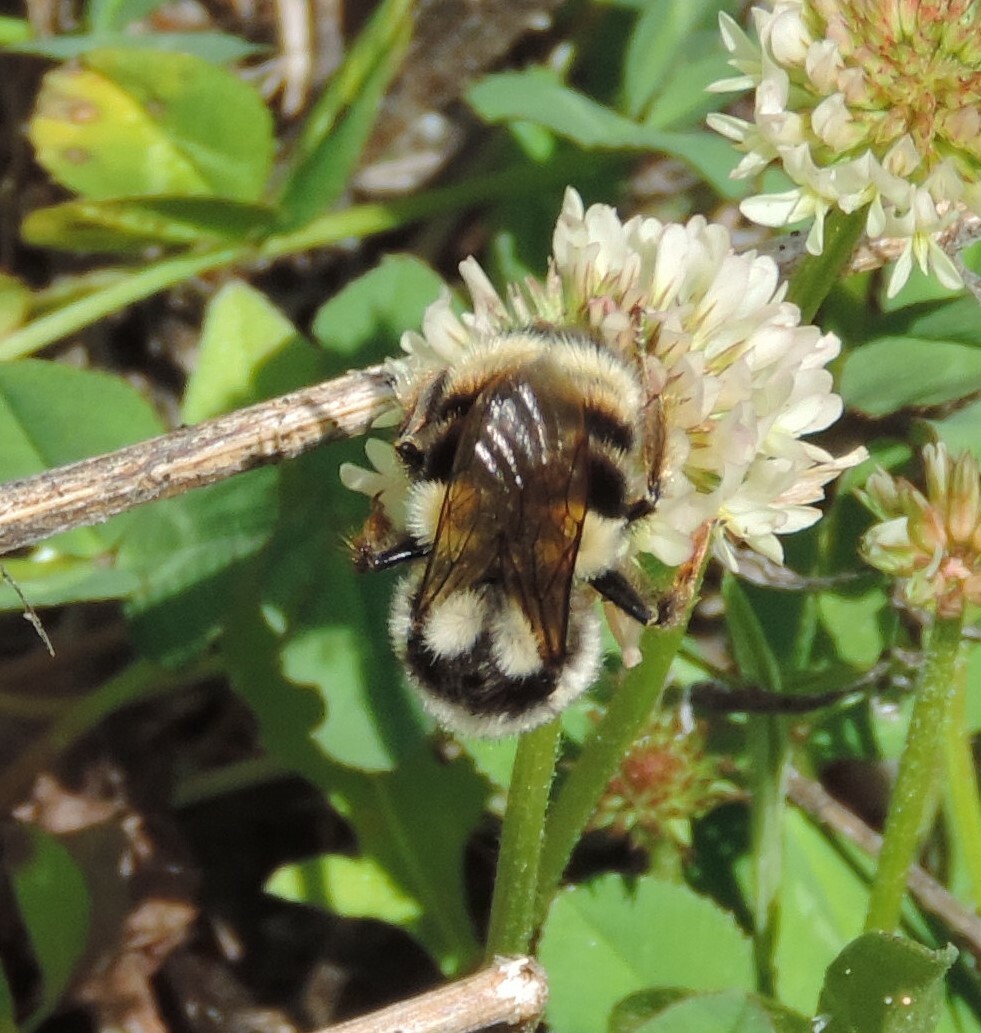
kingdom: Animalia
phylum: Arthropoda
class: Insecta
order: Hymenoptera
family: Apidae
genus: Bombus
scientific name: Bombus vancouverensis
